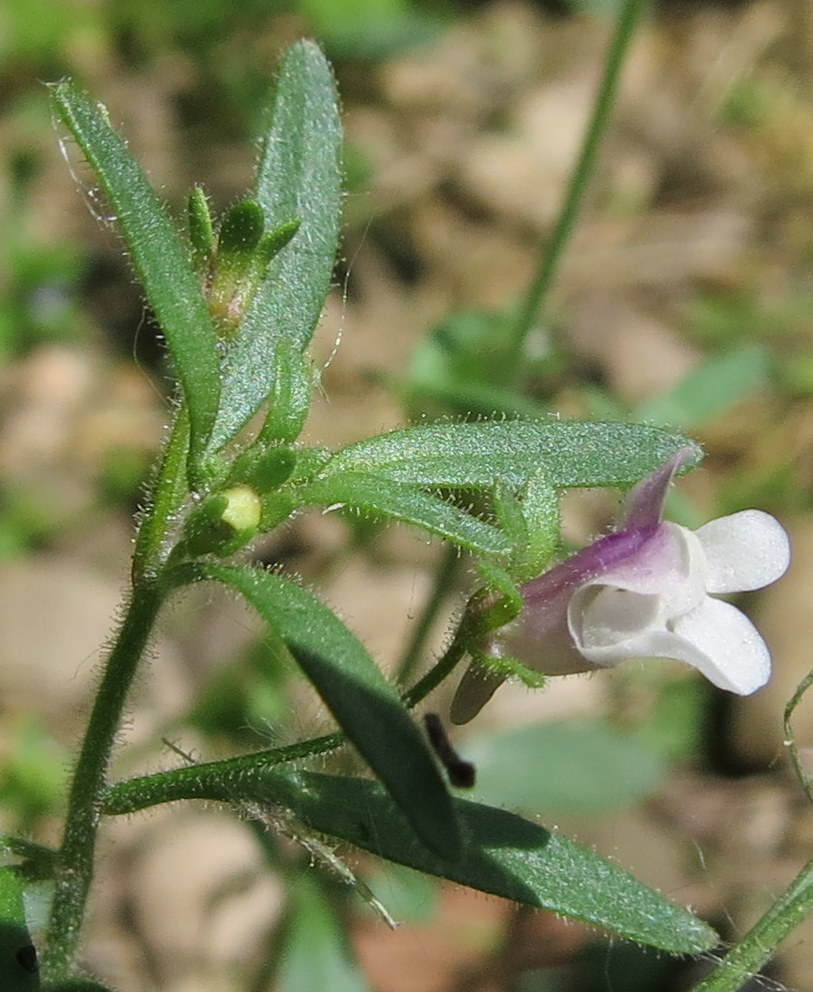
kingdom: Plantae
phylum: Tracheophyta
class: Magnoliopsida
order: Lamiales
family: Plantaginaceae
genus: Chaenorhinum
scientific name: Chaenorhinum minus
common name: Dwarf snapdragon
